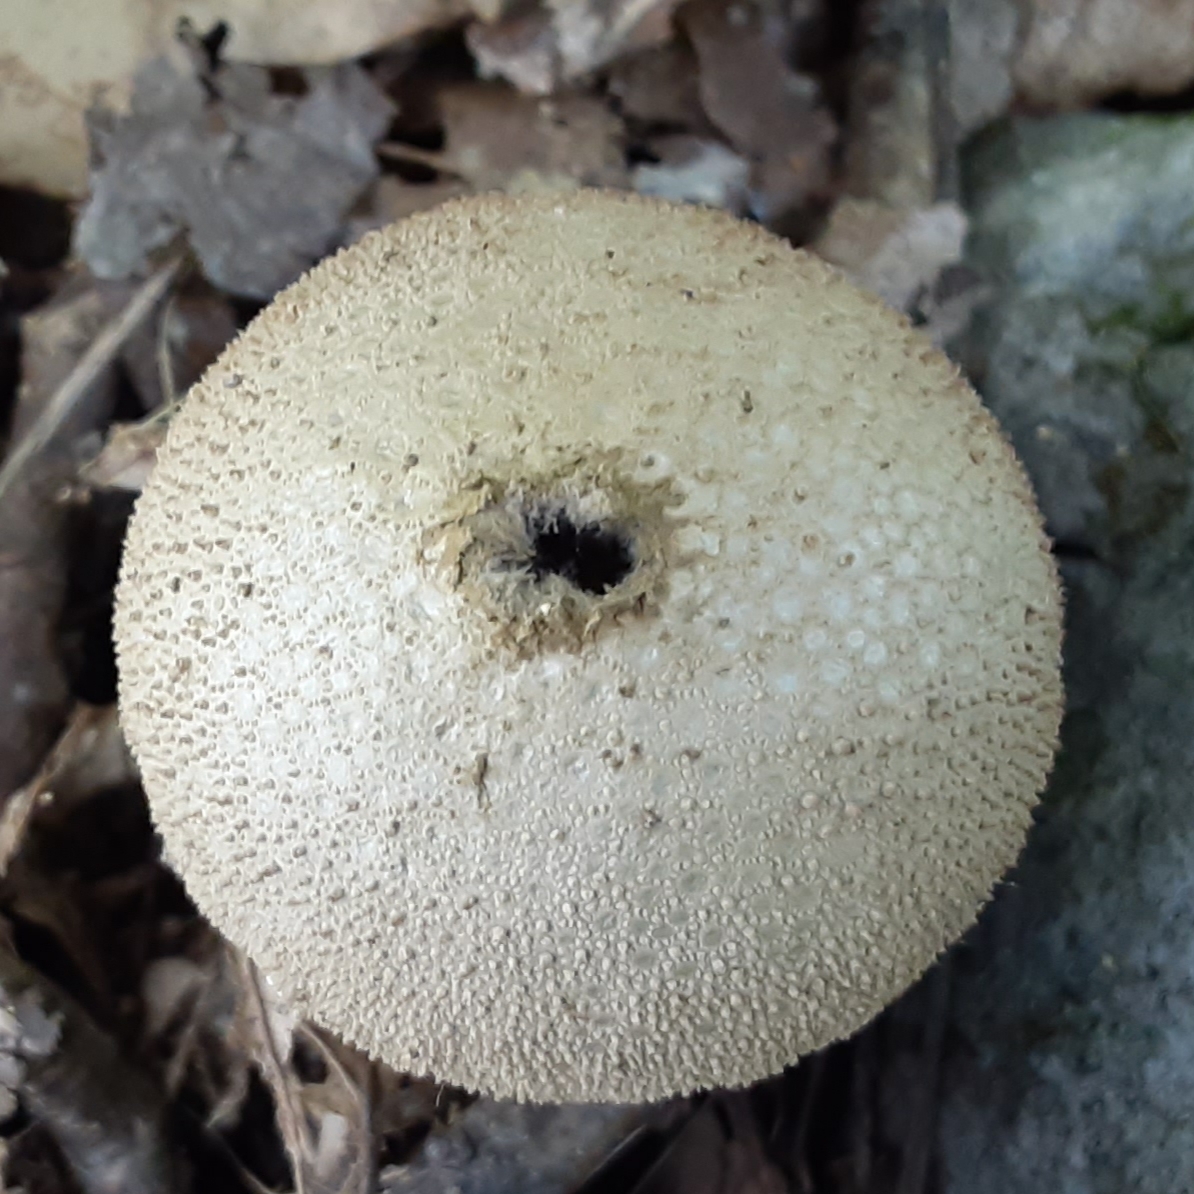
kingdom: Fungi
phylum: Basidiomycota
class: Agaricomycetes
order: Agaricales
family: Lycoperdaceae
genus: Lycoperdon
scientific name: Lycoperdon perlatum
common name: Common puffball
